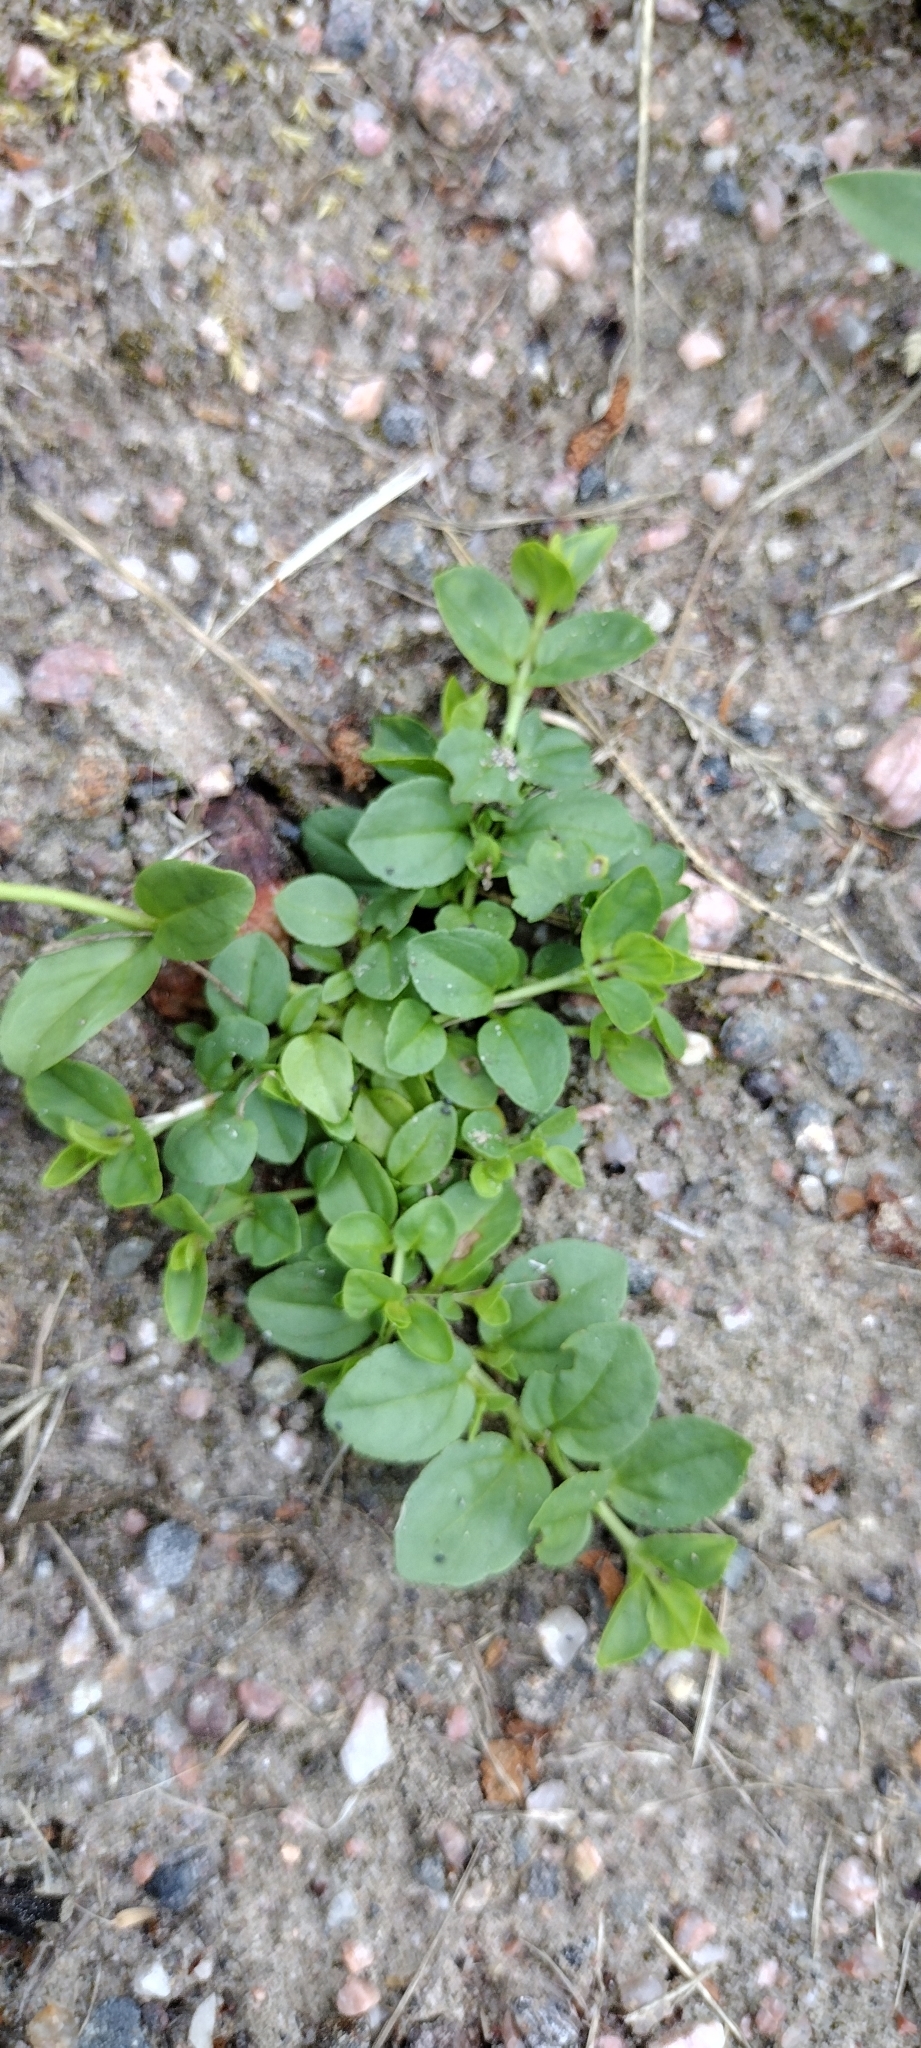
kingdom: Plantae
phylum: Tracheophyta
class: Magnoliopsida
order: Lamiales
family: Plantaginaceae
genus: Veronica
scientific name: Veronica serpyllifolia
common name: Thyme-leaved speedwell
